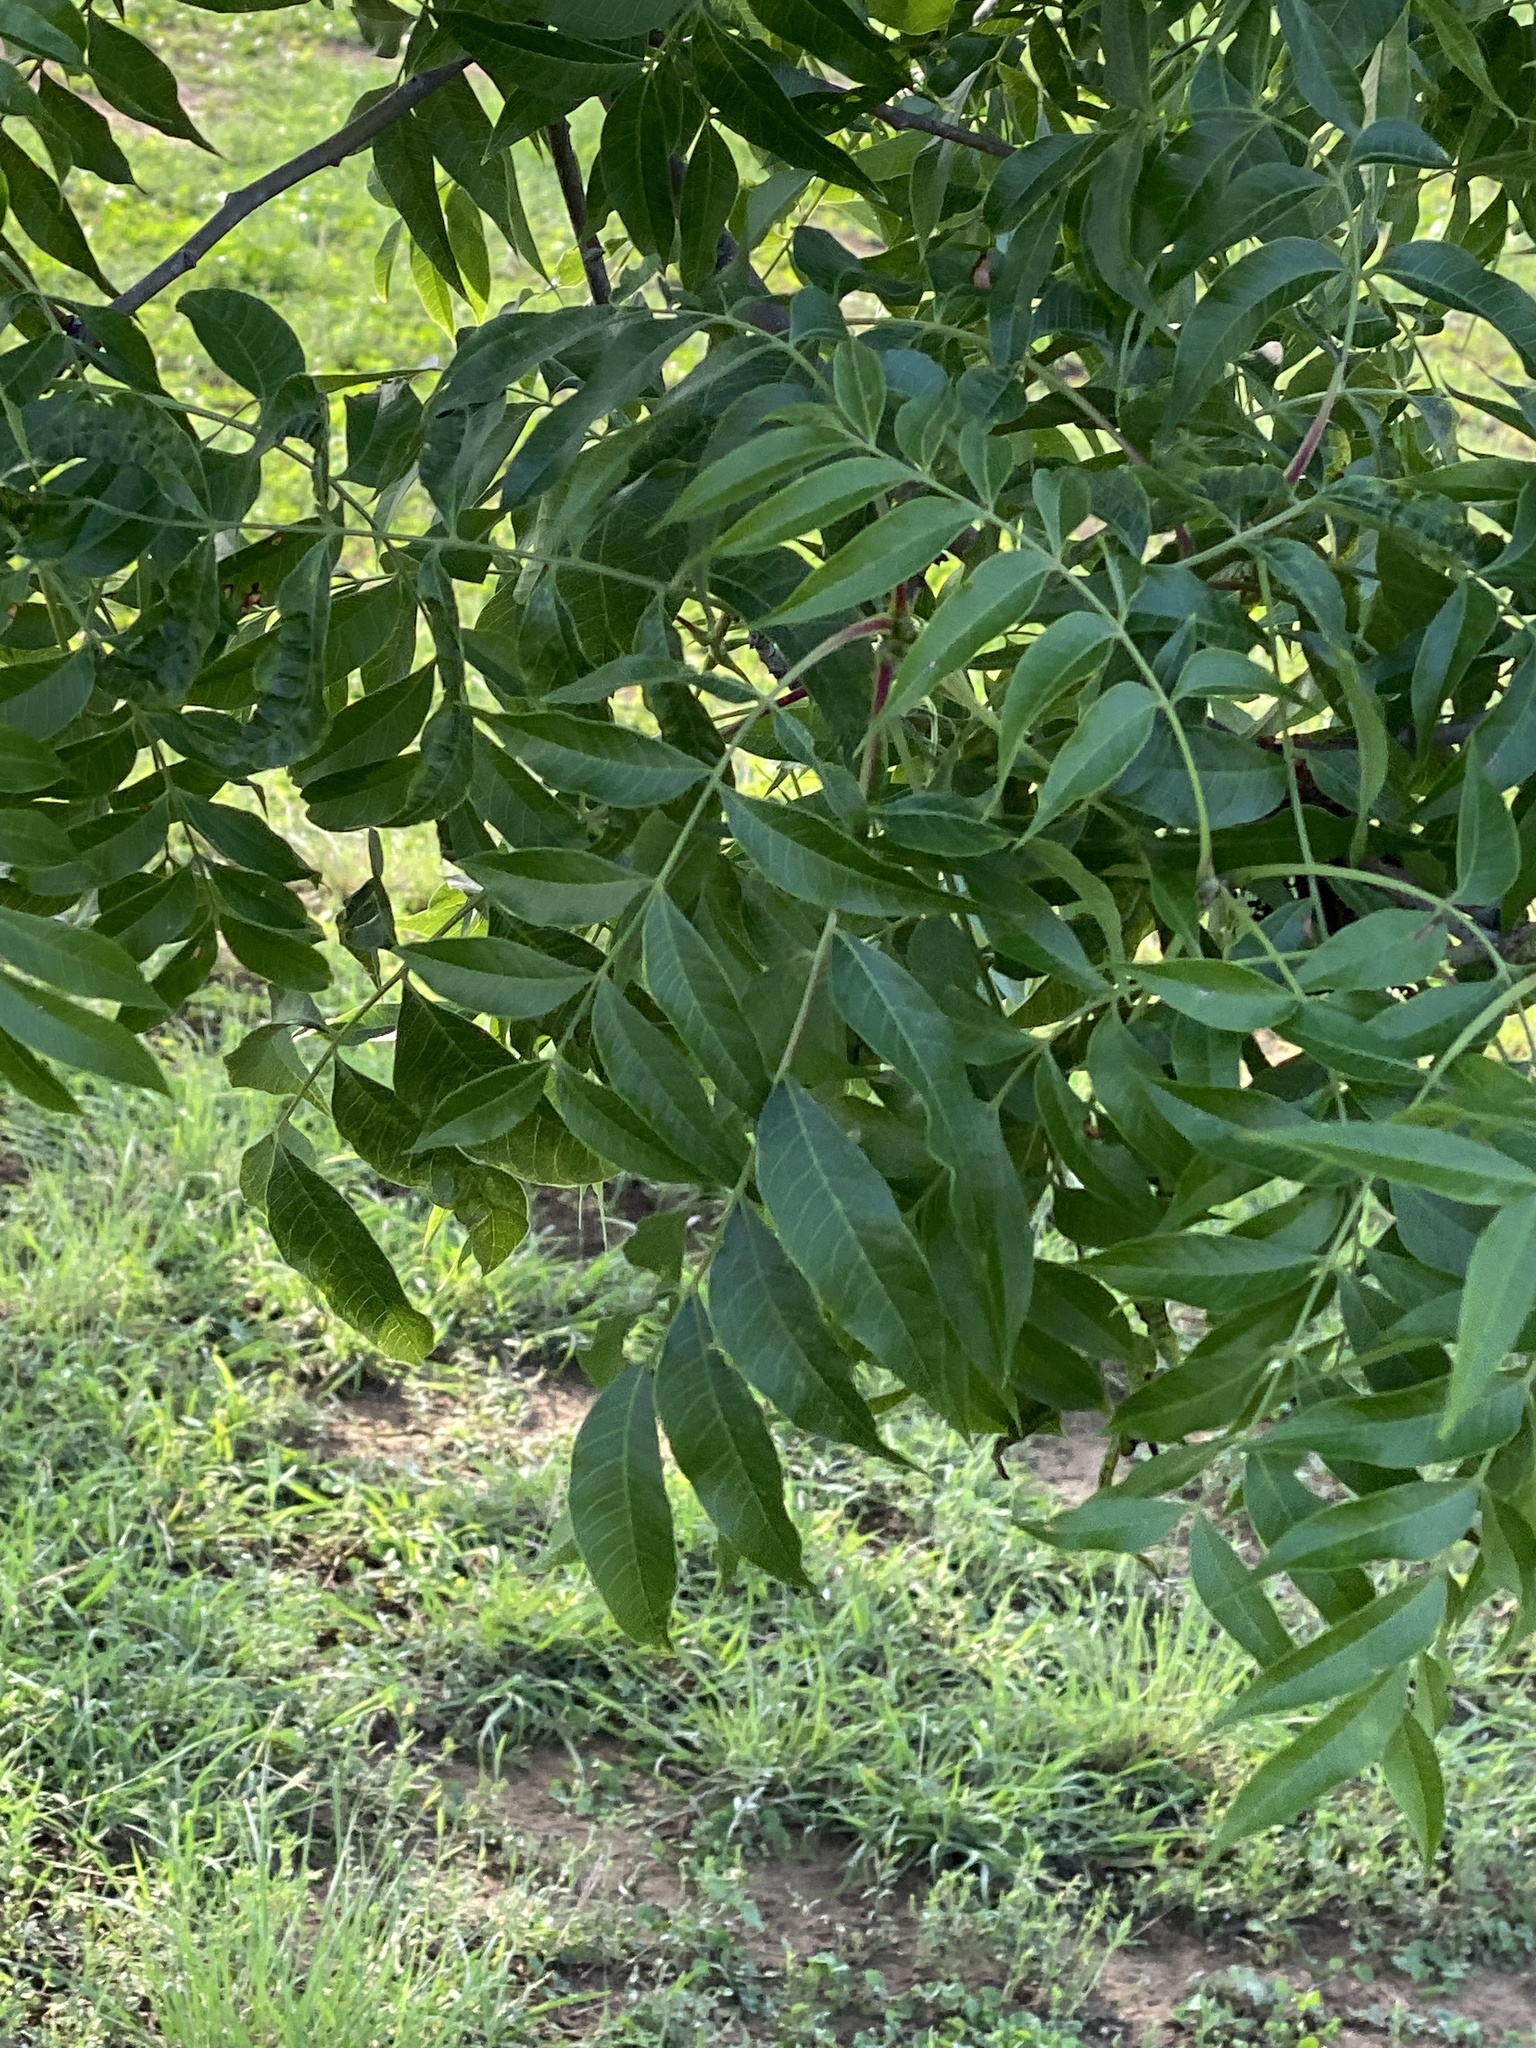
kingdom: Plantae
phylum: Tracheophyta
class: Magnoliopsida
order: Sapindales
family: Anacardiaceae
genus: Pistacia
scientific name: Pistacia chinensis
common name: Chinese pistache
